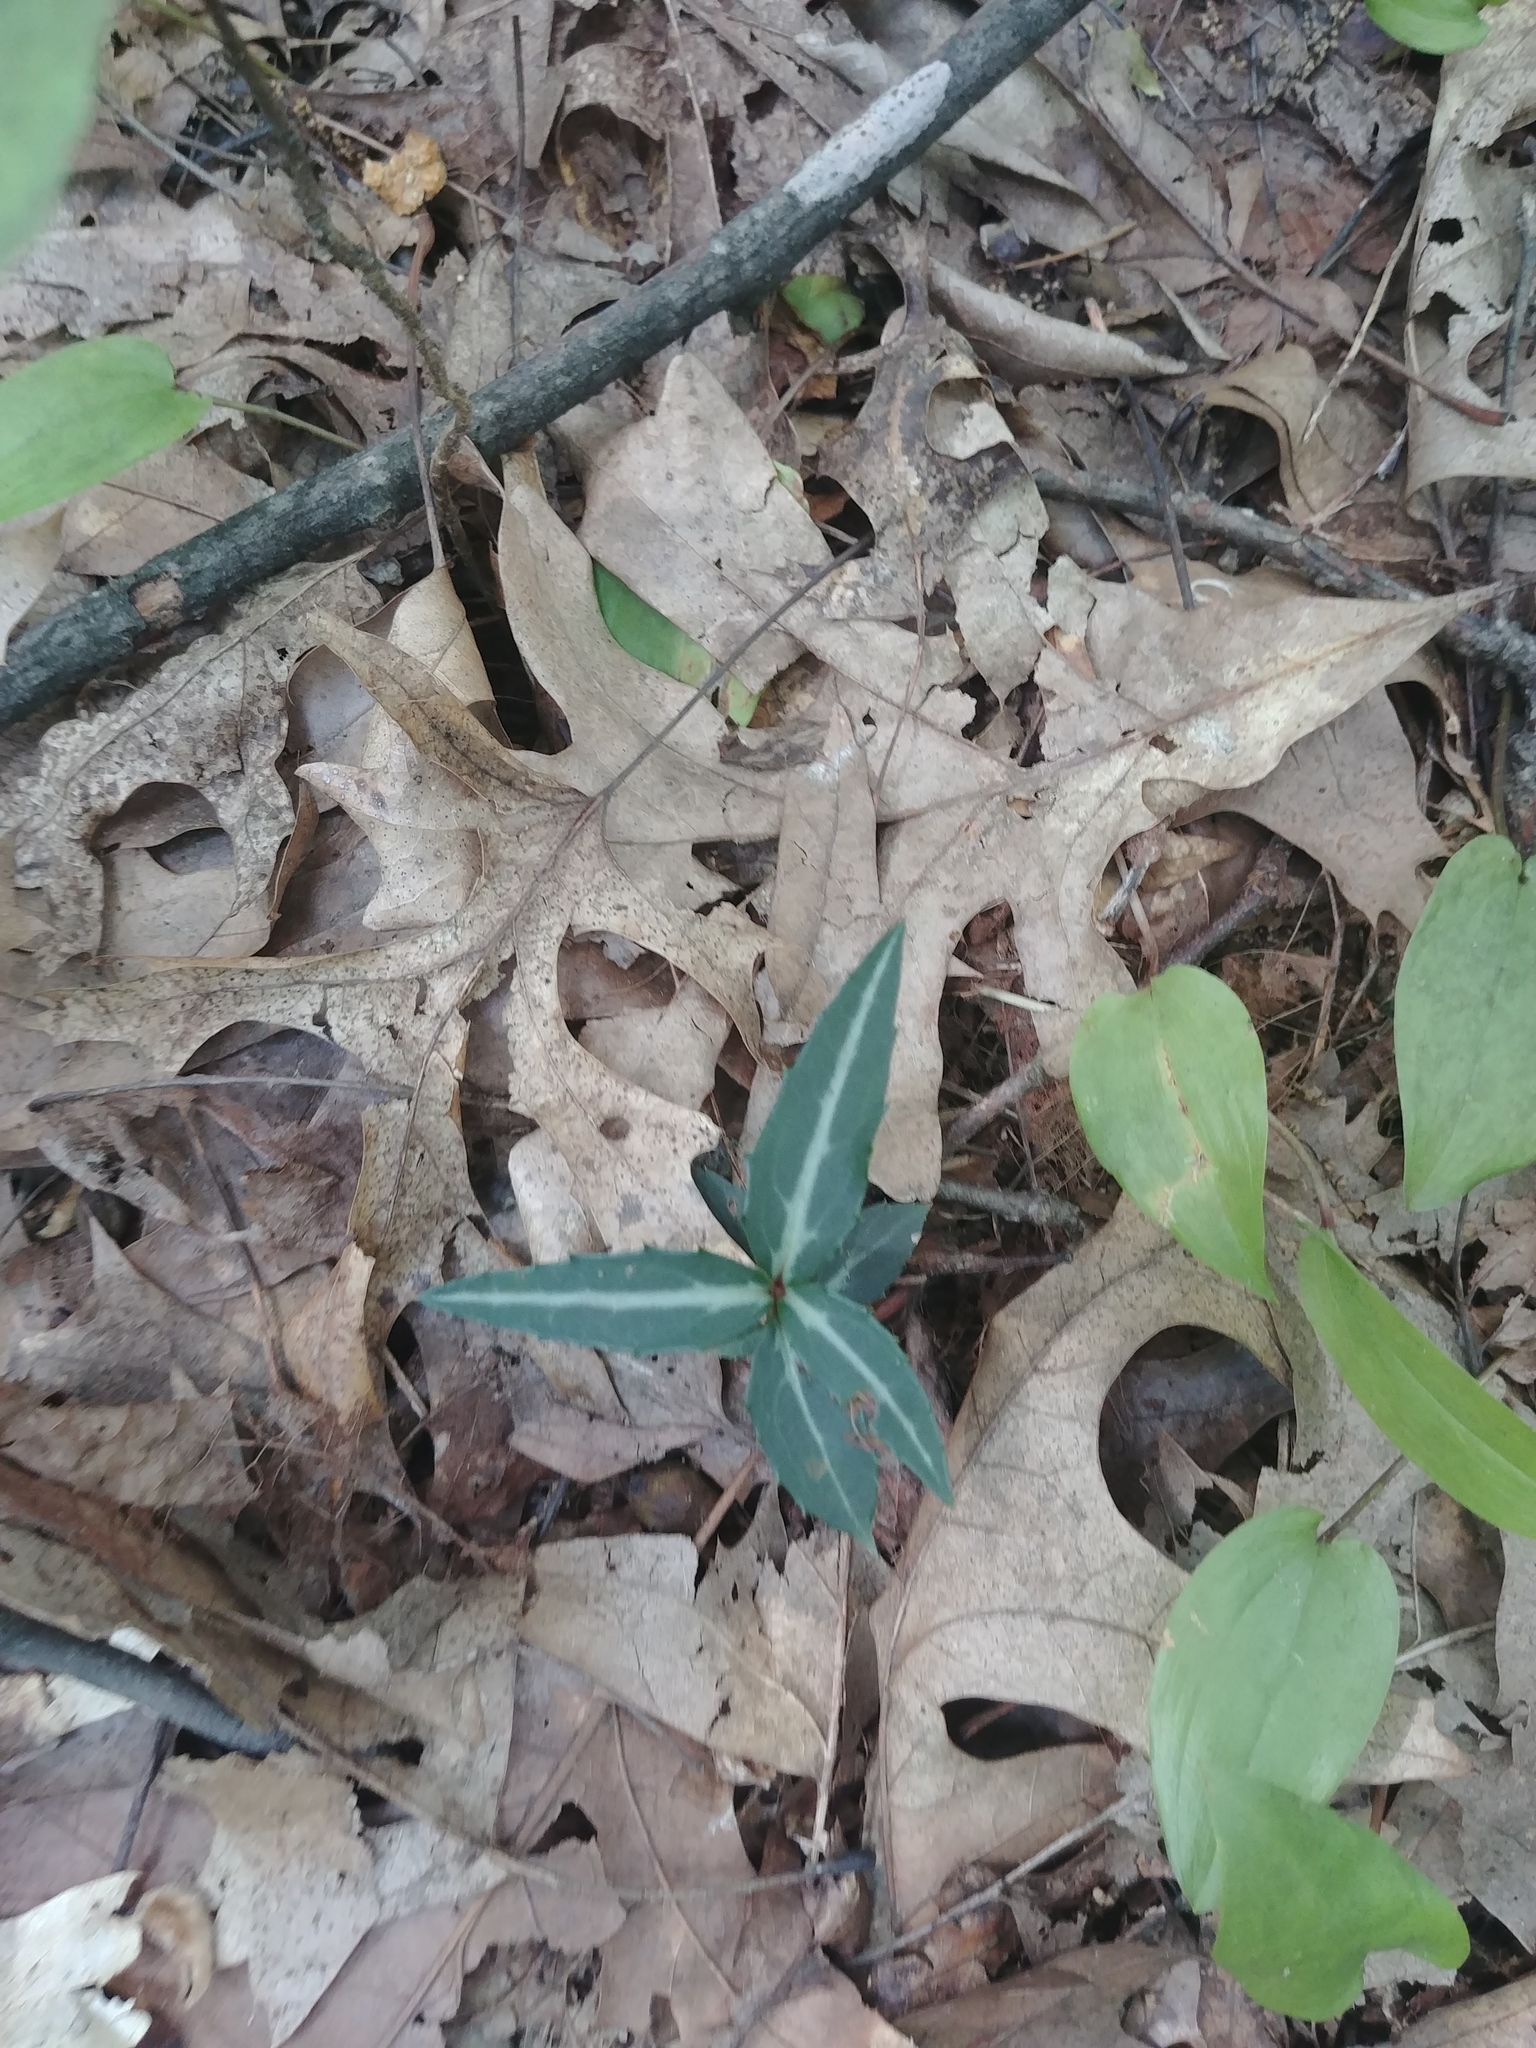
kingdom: Plantae
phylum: Tracheophyta
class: Magnoliopsida
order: Ericales
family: Ericaceae
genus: Chimaphila
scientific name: Chimaphila maculata
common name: Spotted pipsissewa
